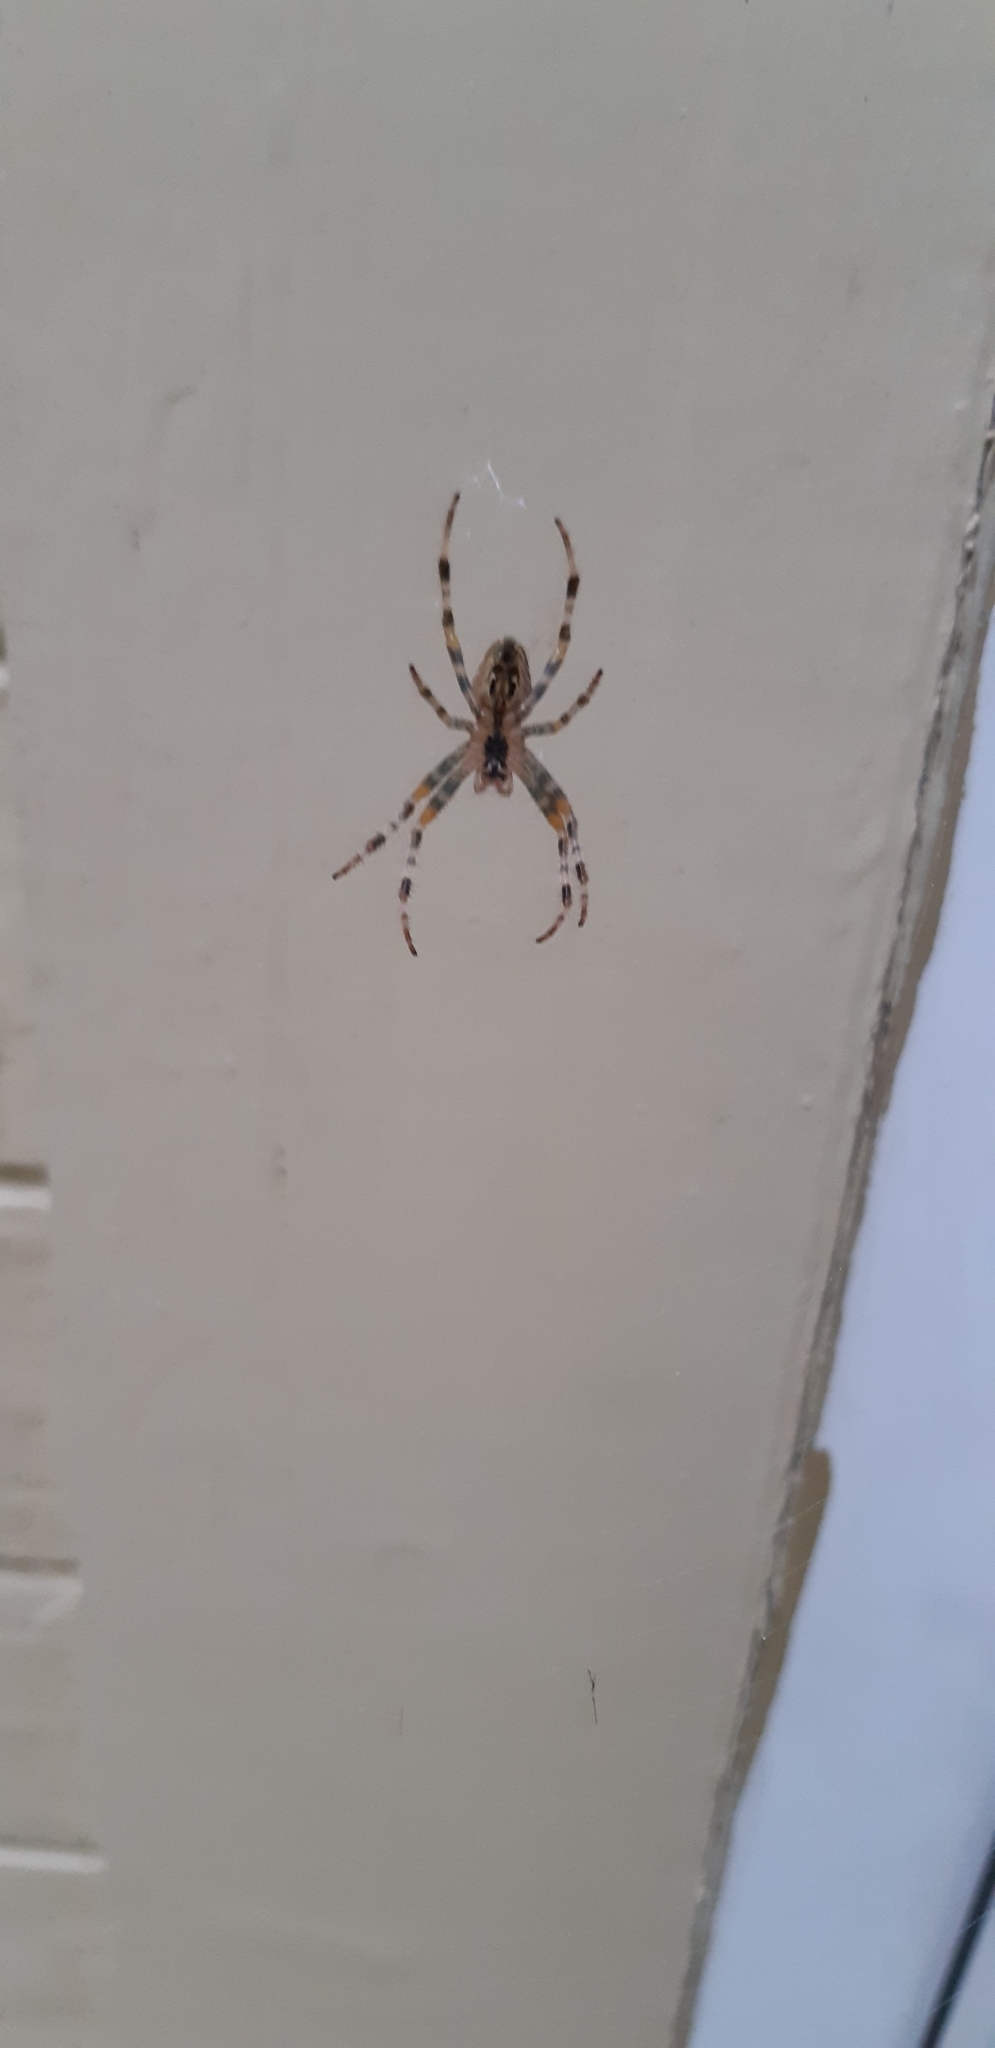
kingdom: Animalia
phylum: Arthropoda
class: Arachnida
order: Araneae
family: Araneidae
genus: Araneus
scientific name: Araneus diadematus
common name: Cross orbweaver
